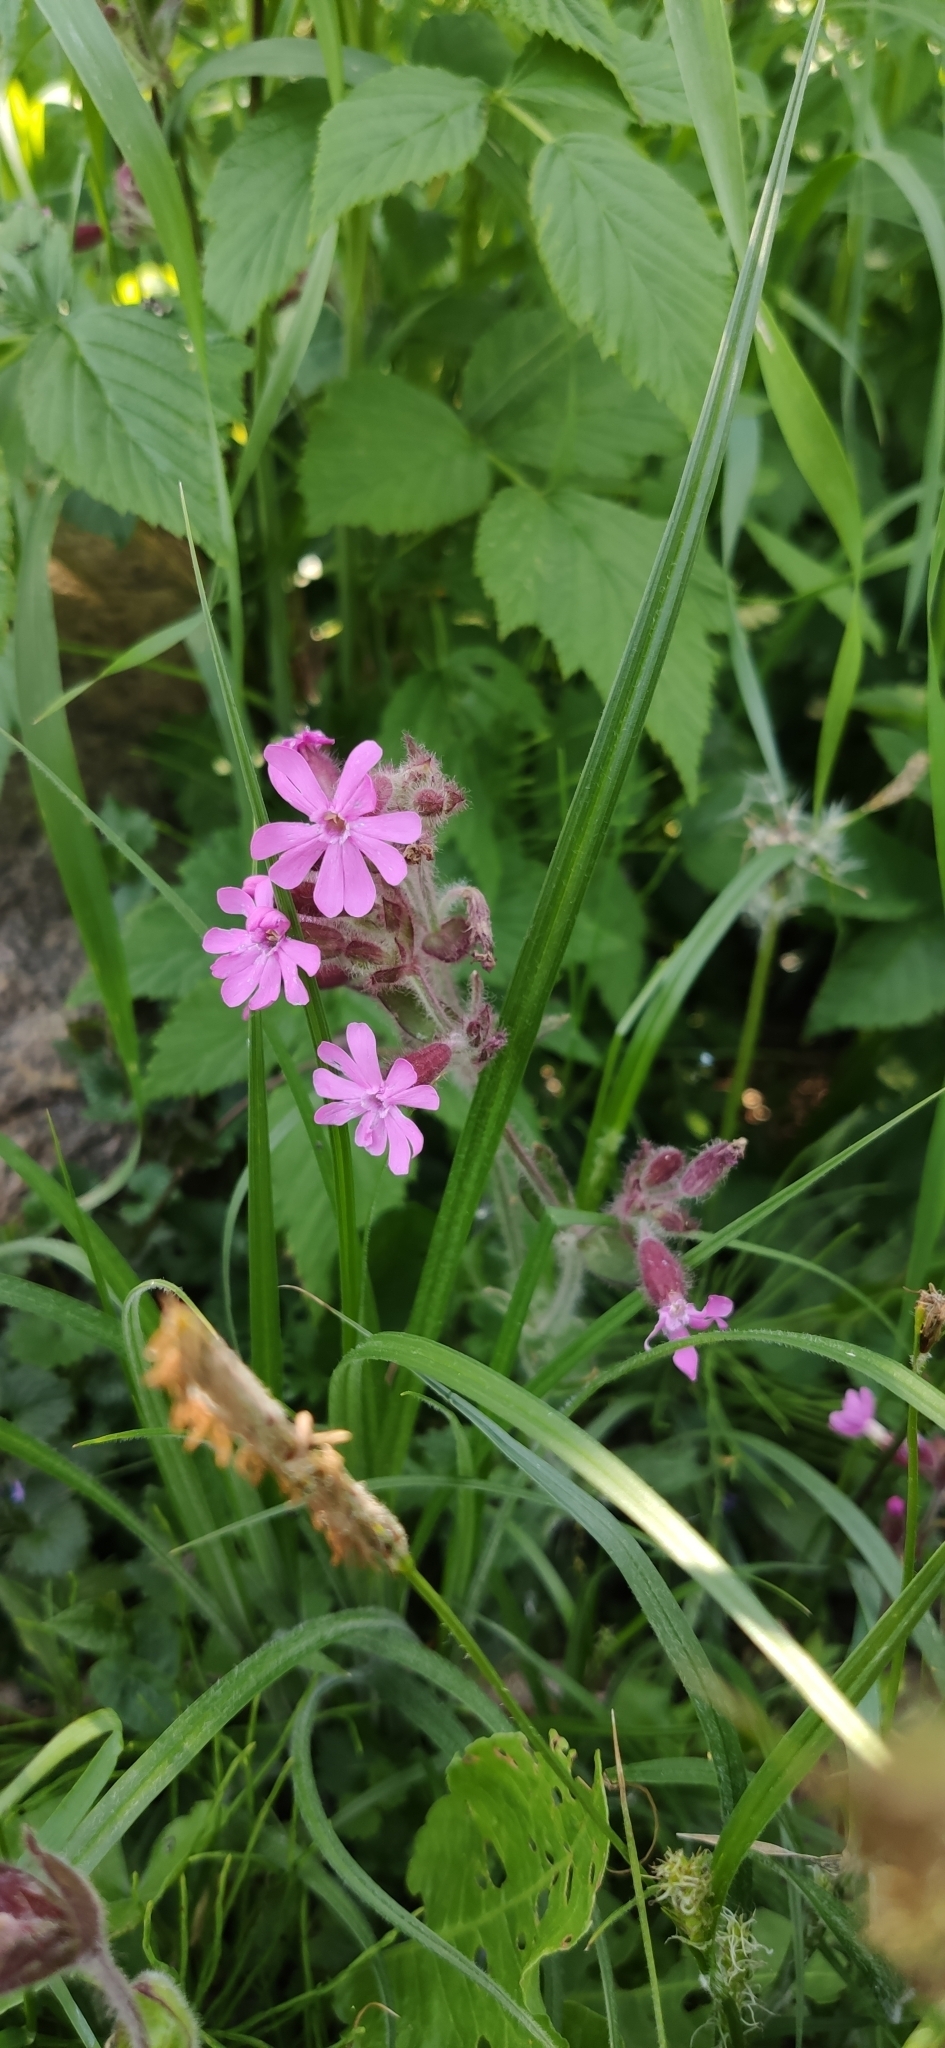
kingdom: Plantae
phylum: Tracheophyta
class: Magnoliopsida
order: Caryophyllales
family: Caryophyllaceae
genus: Silene
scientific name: Silene dioica
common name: Red campion
